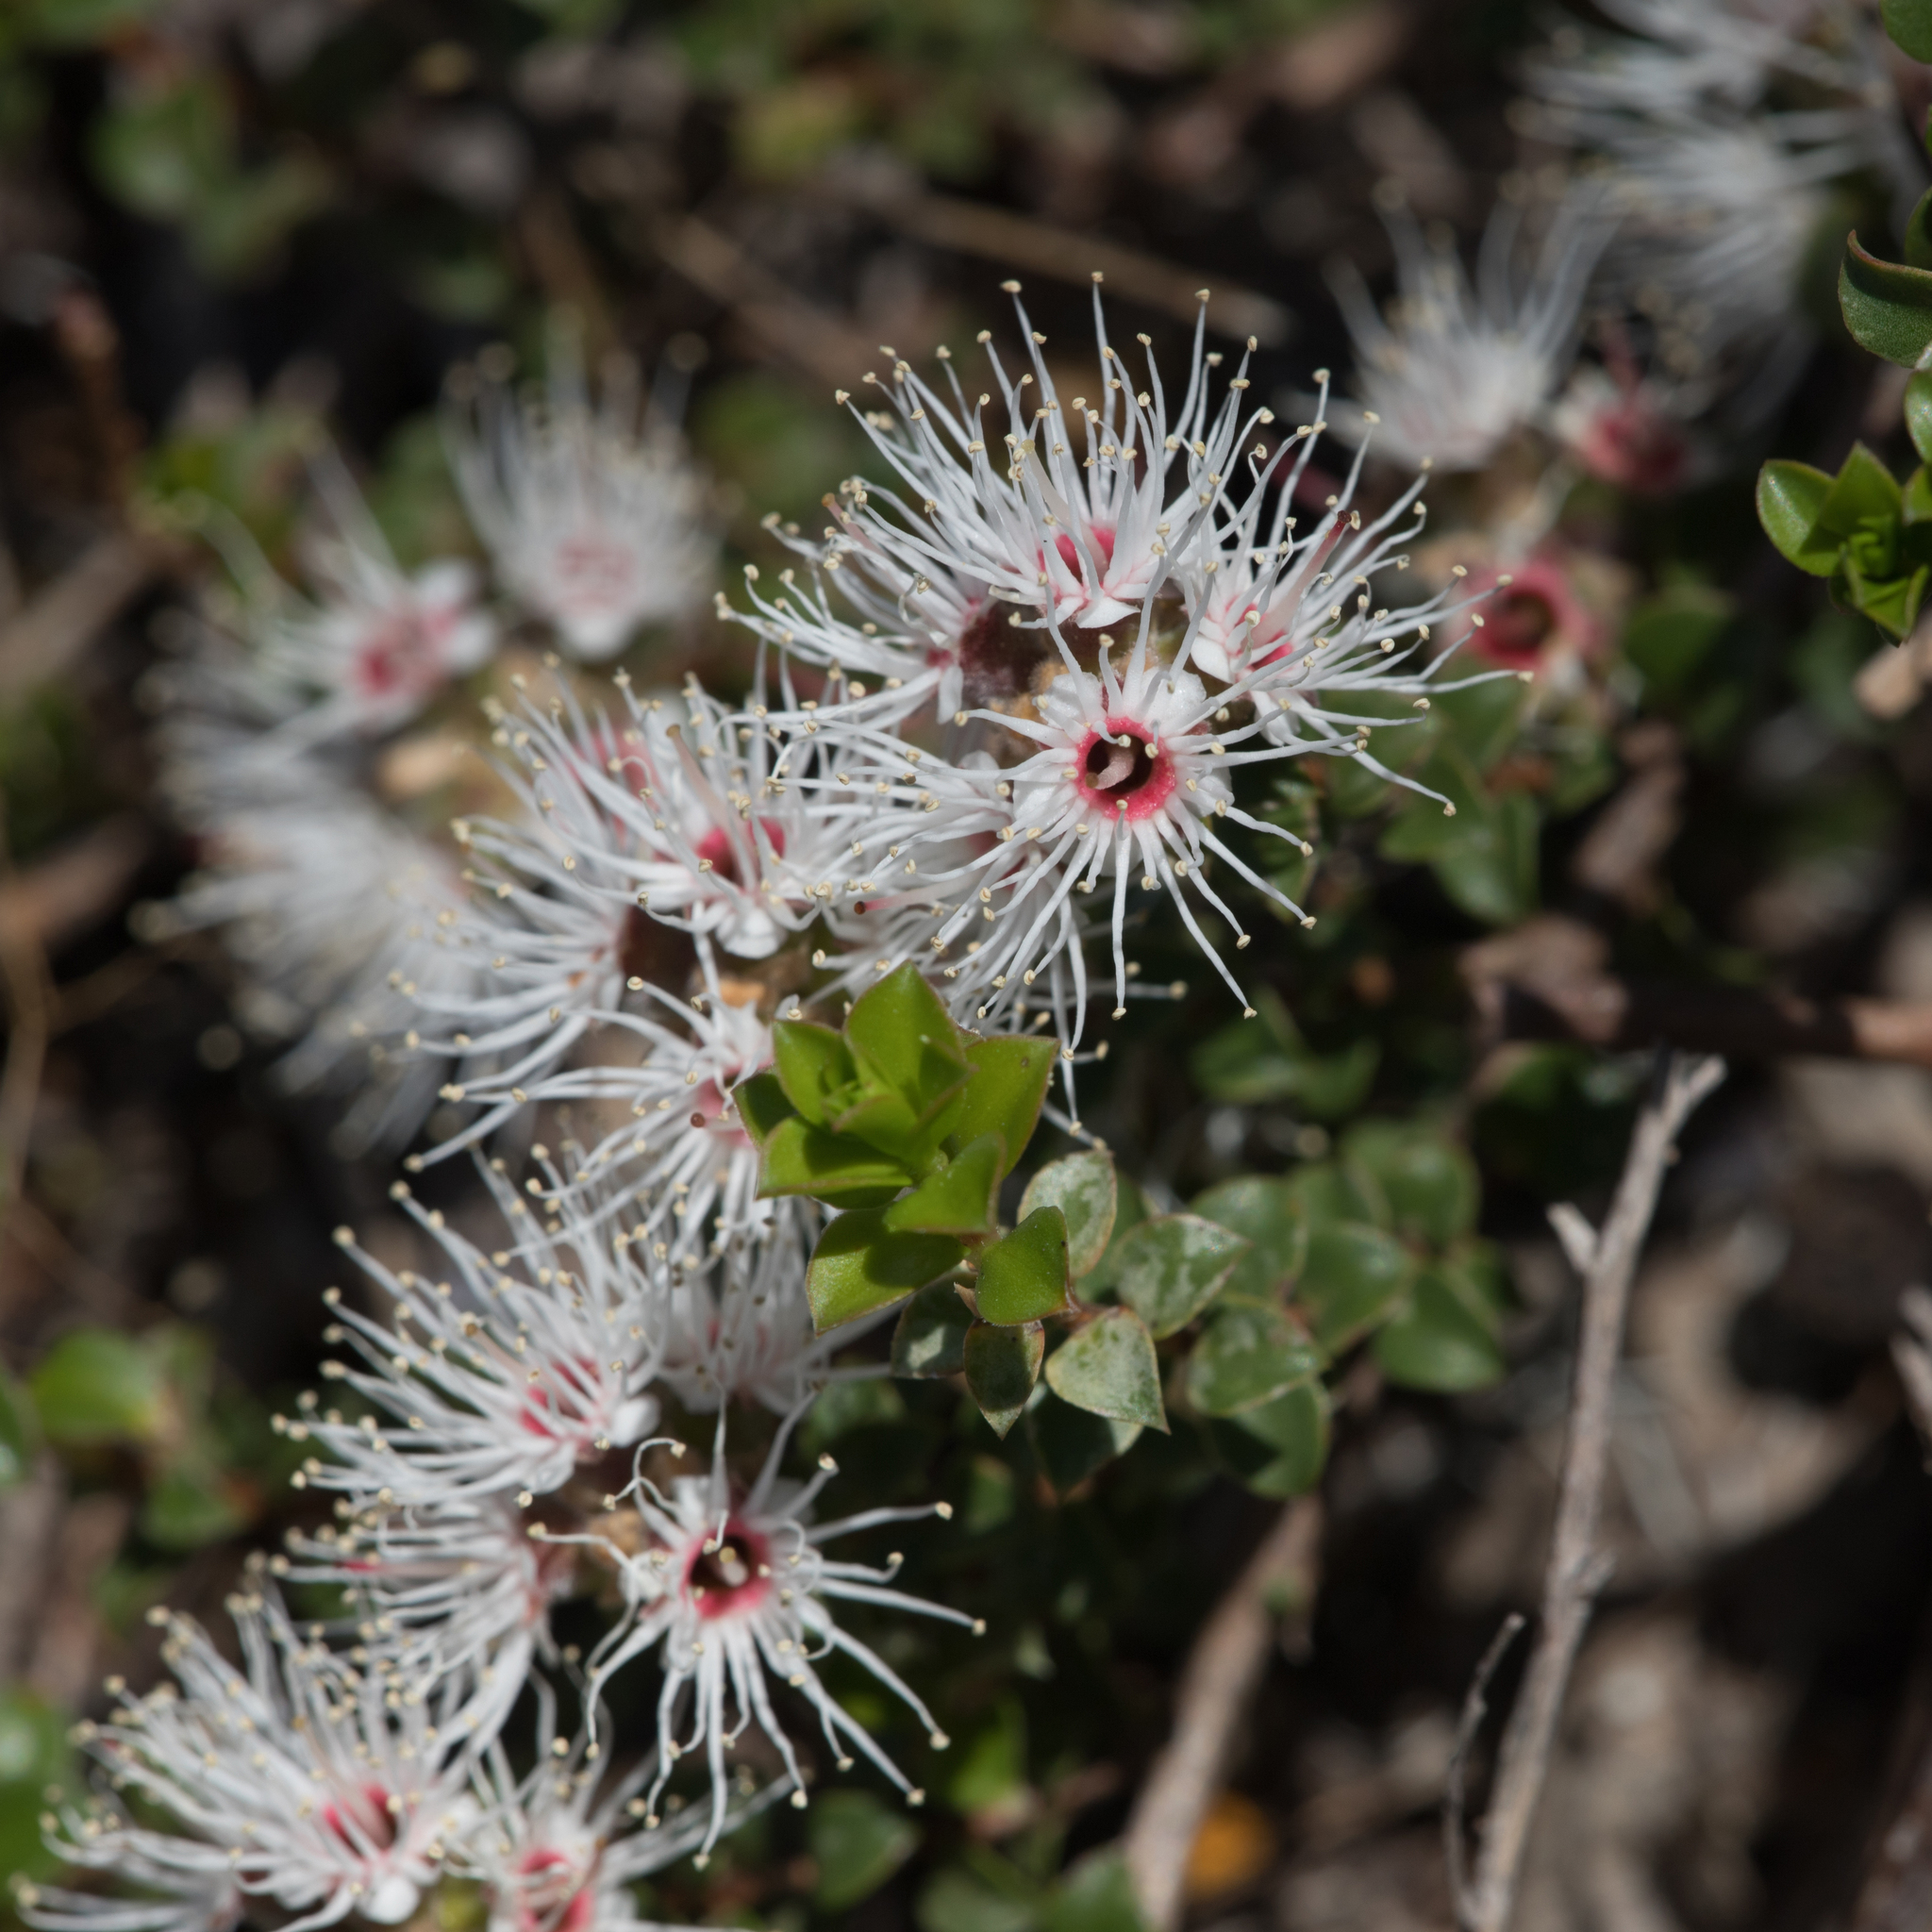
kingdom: Plantae
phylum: Tracheophyta
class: Magnoliopsida
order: Myrtales
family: Myrtaceae
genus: Kunzea
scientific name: Kunzea pomifera
